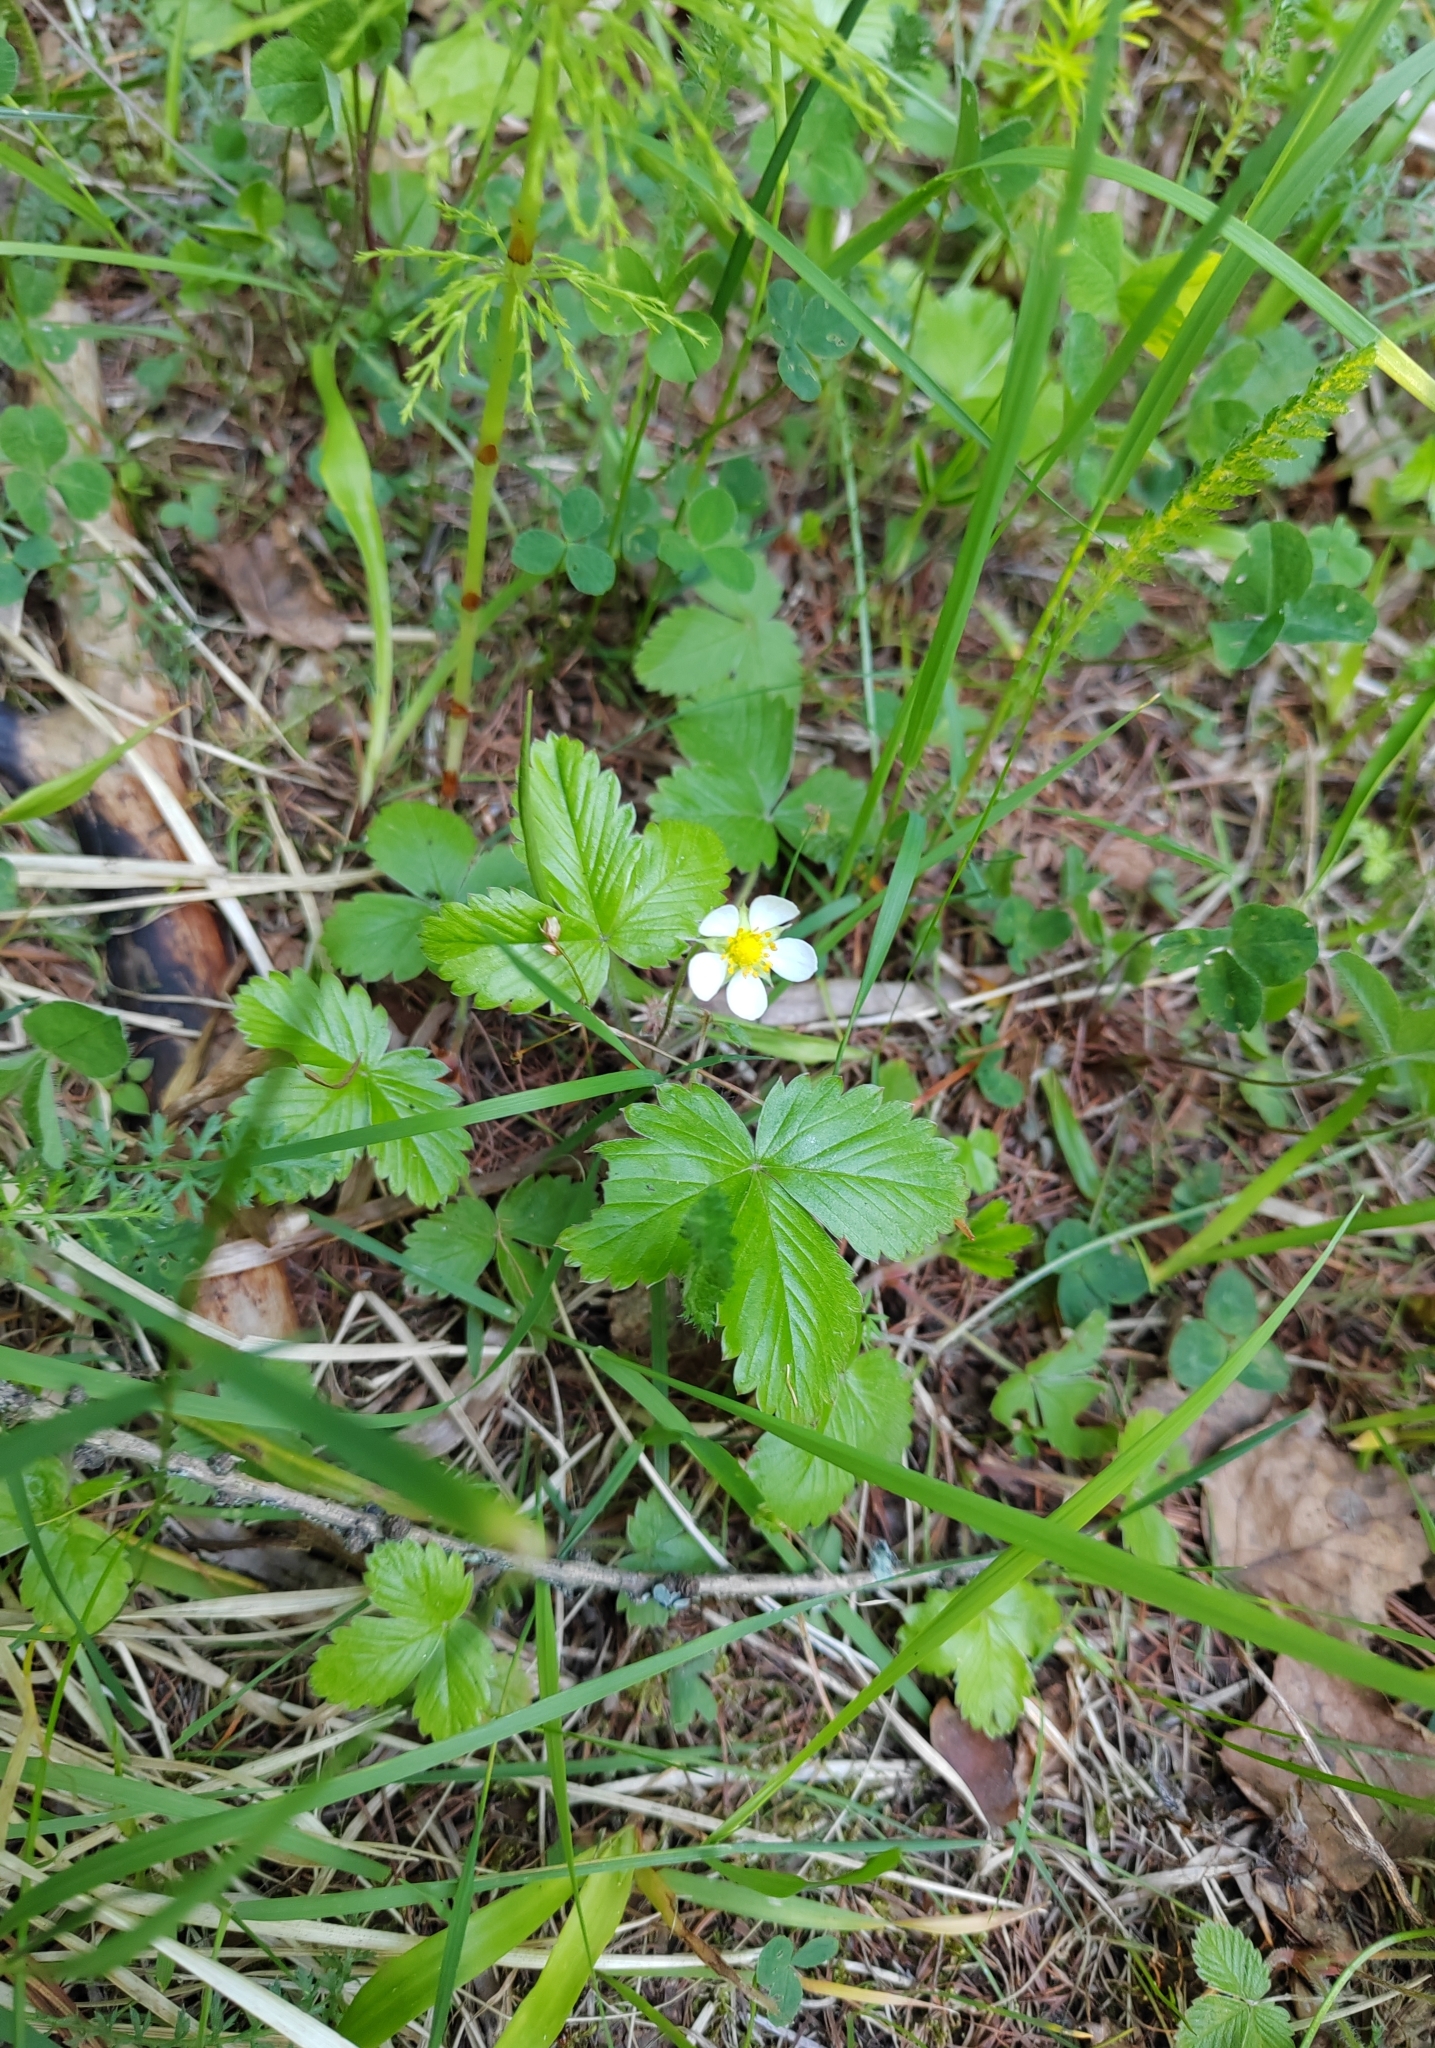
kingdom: Plantae
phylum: Tracheophyta
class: Magnoliopsida
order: Rosales
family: Rosaceae
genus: Fragaria
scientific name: Fragaria vesca
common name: Wild strawberry
